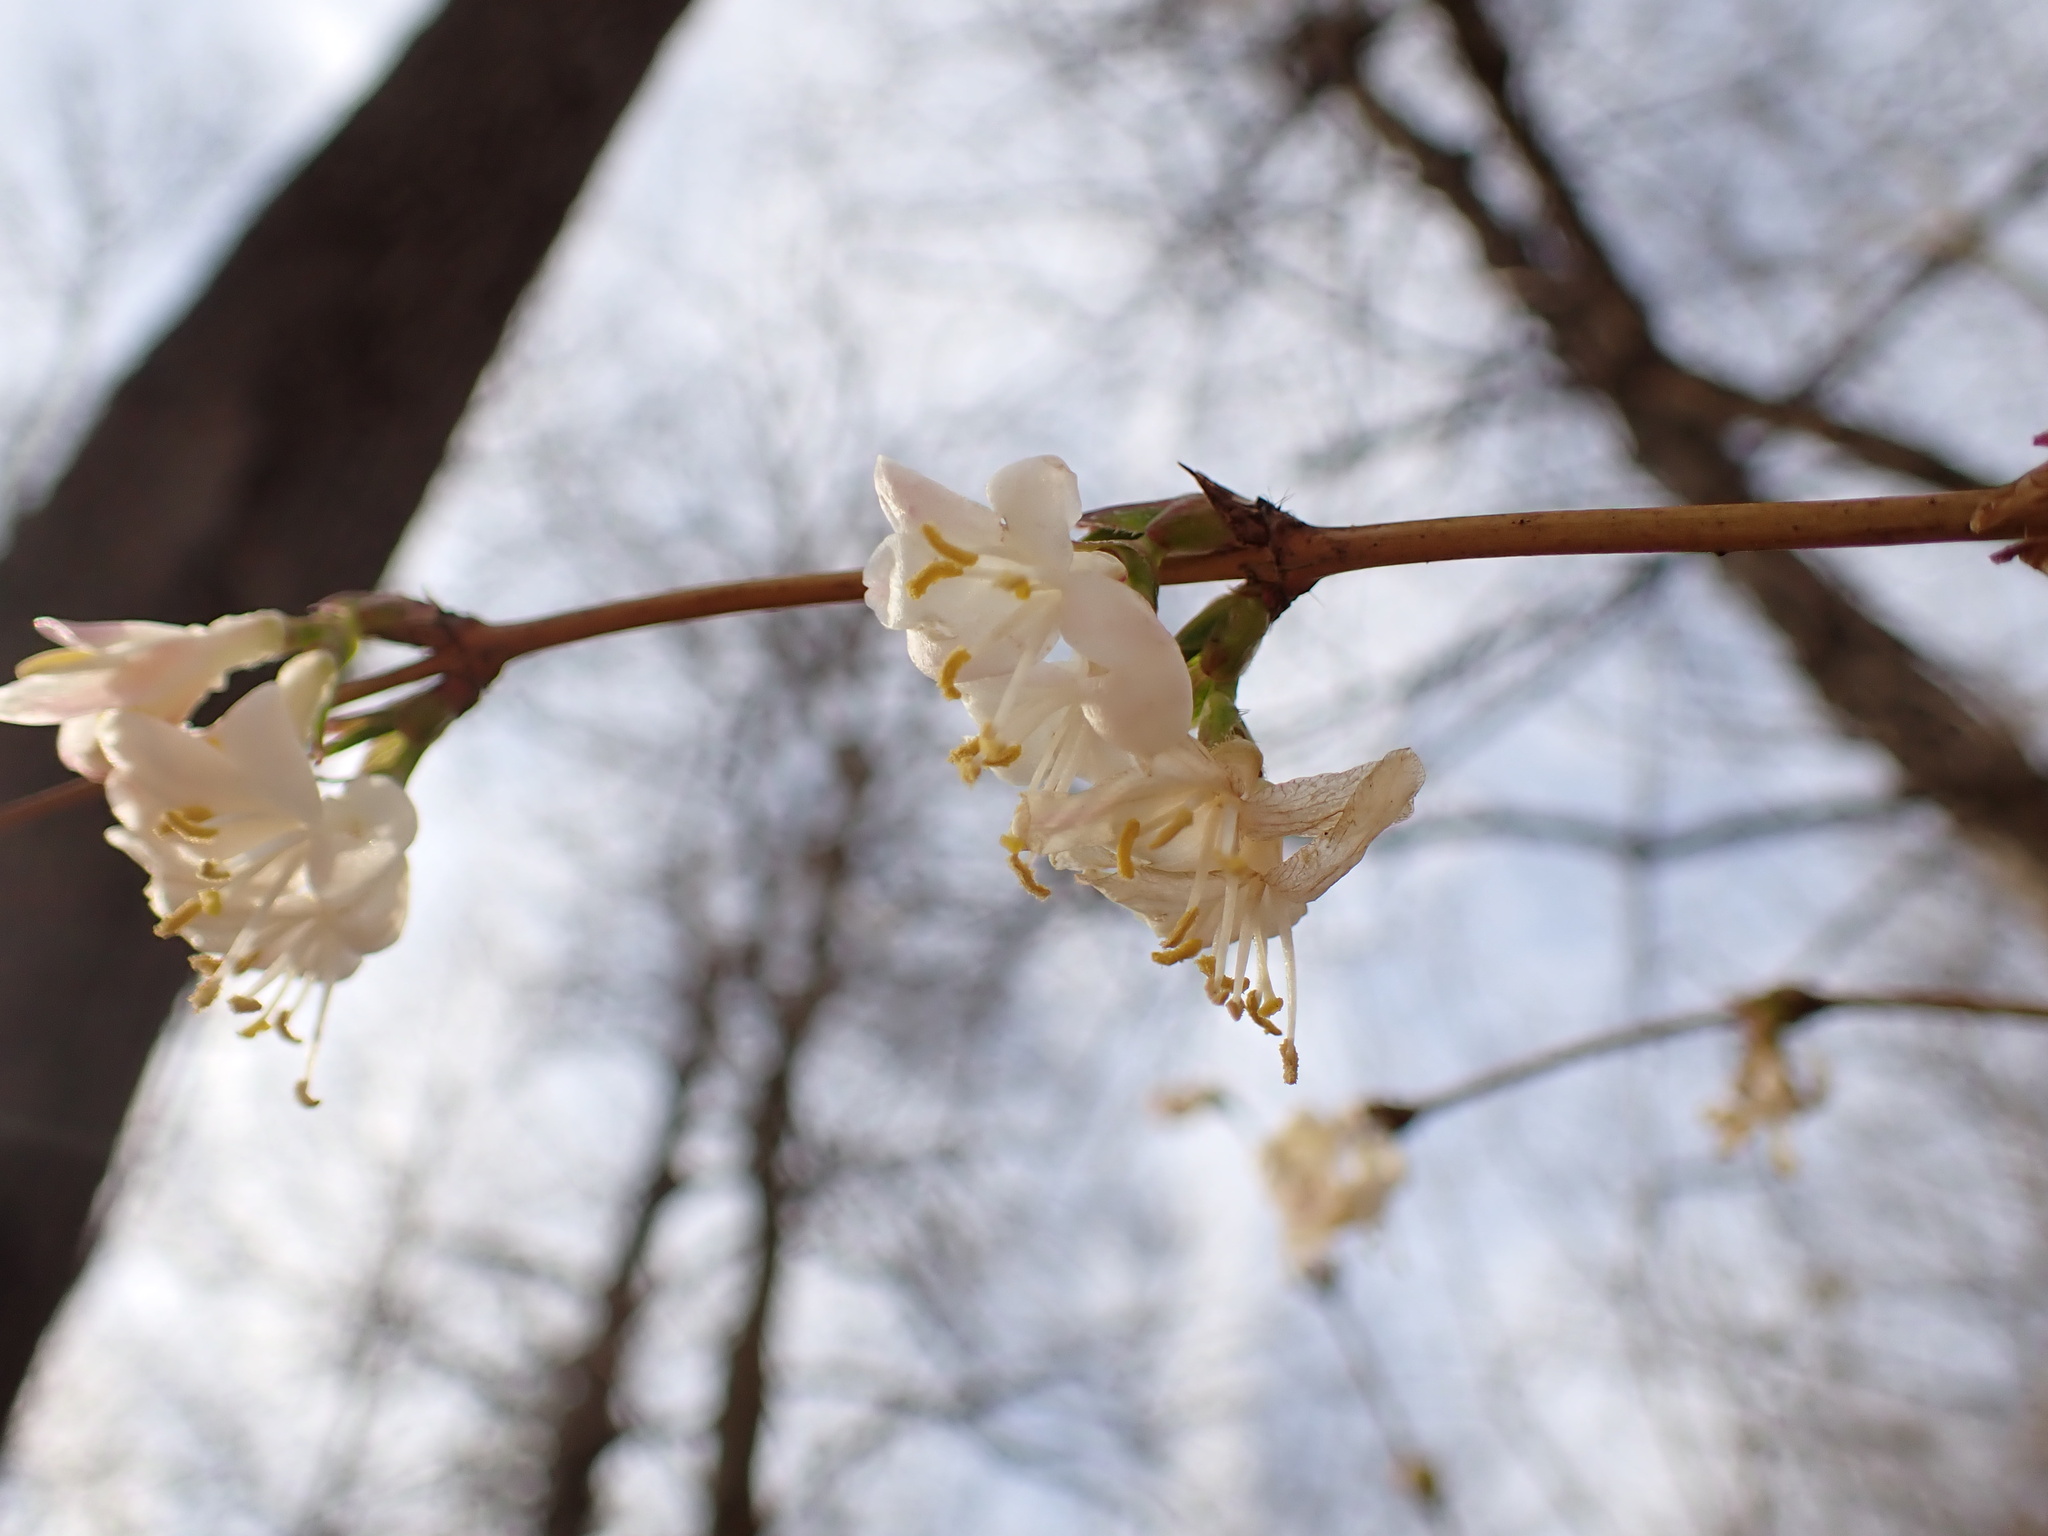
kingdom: Plantae
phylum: Tracheophyta
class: Magnoliopsida
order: Dipsacales
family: Caprifoliaceae
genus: Lonicera
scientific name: Lonicera fragrantissima
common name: Fragrant honeysuckle
